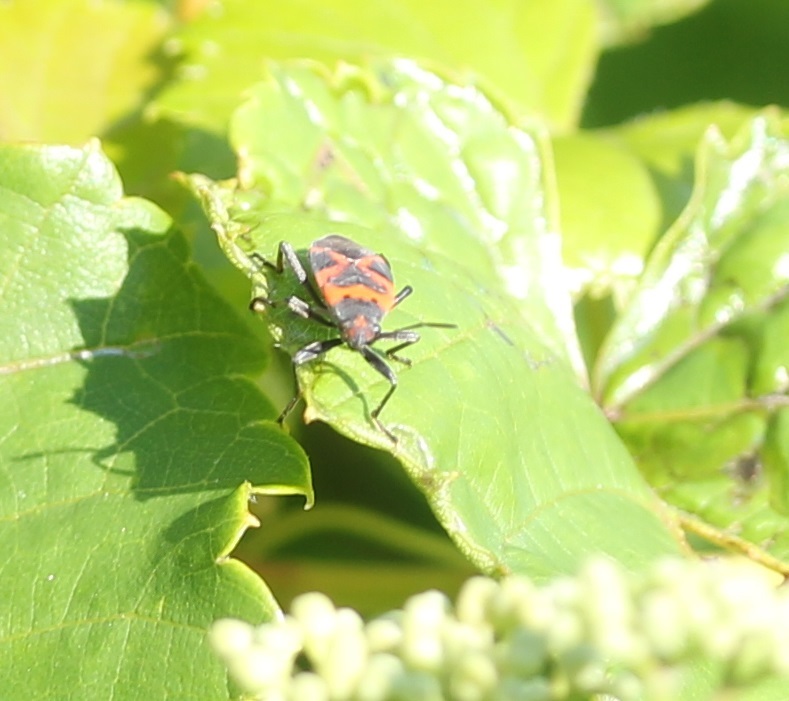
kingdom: Animalia
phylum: Arthropoda
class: Insecta
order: Hemiptera
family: Lygaeidae
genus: Lygaeus
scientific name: Lygaeus kalmii
